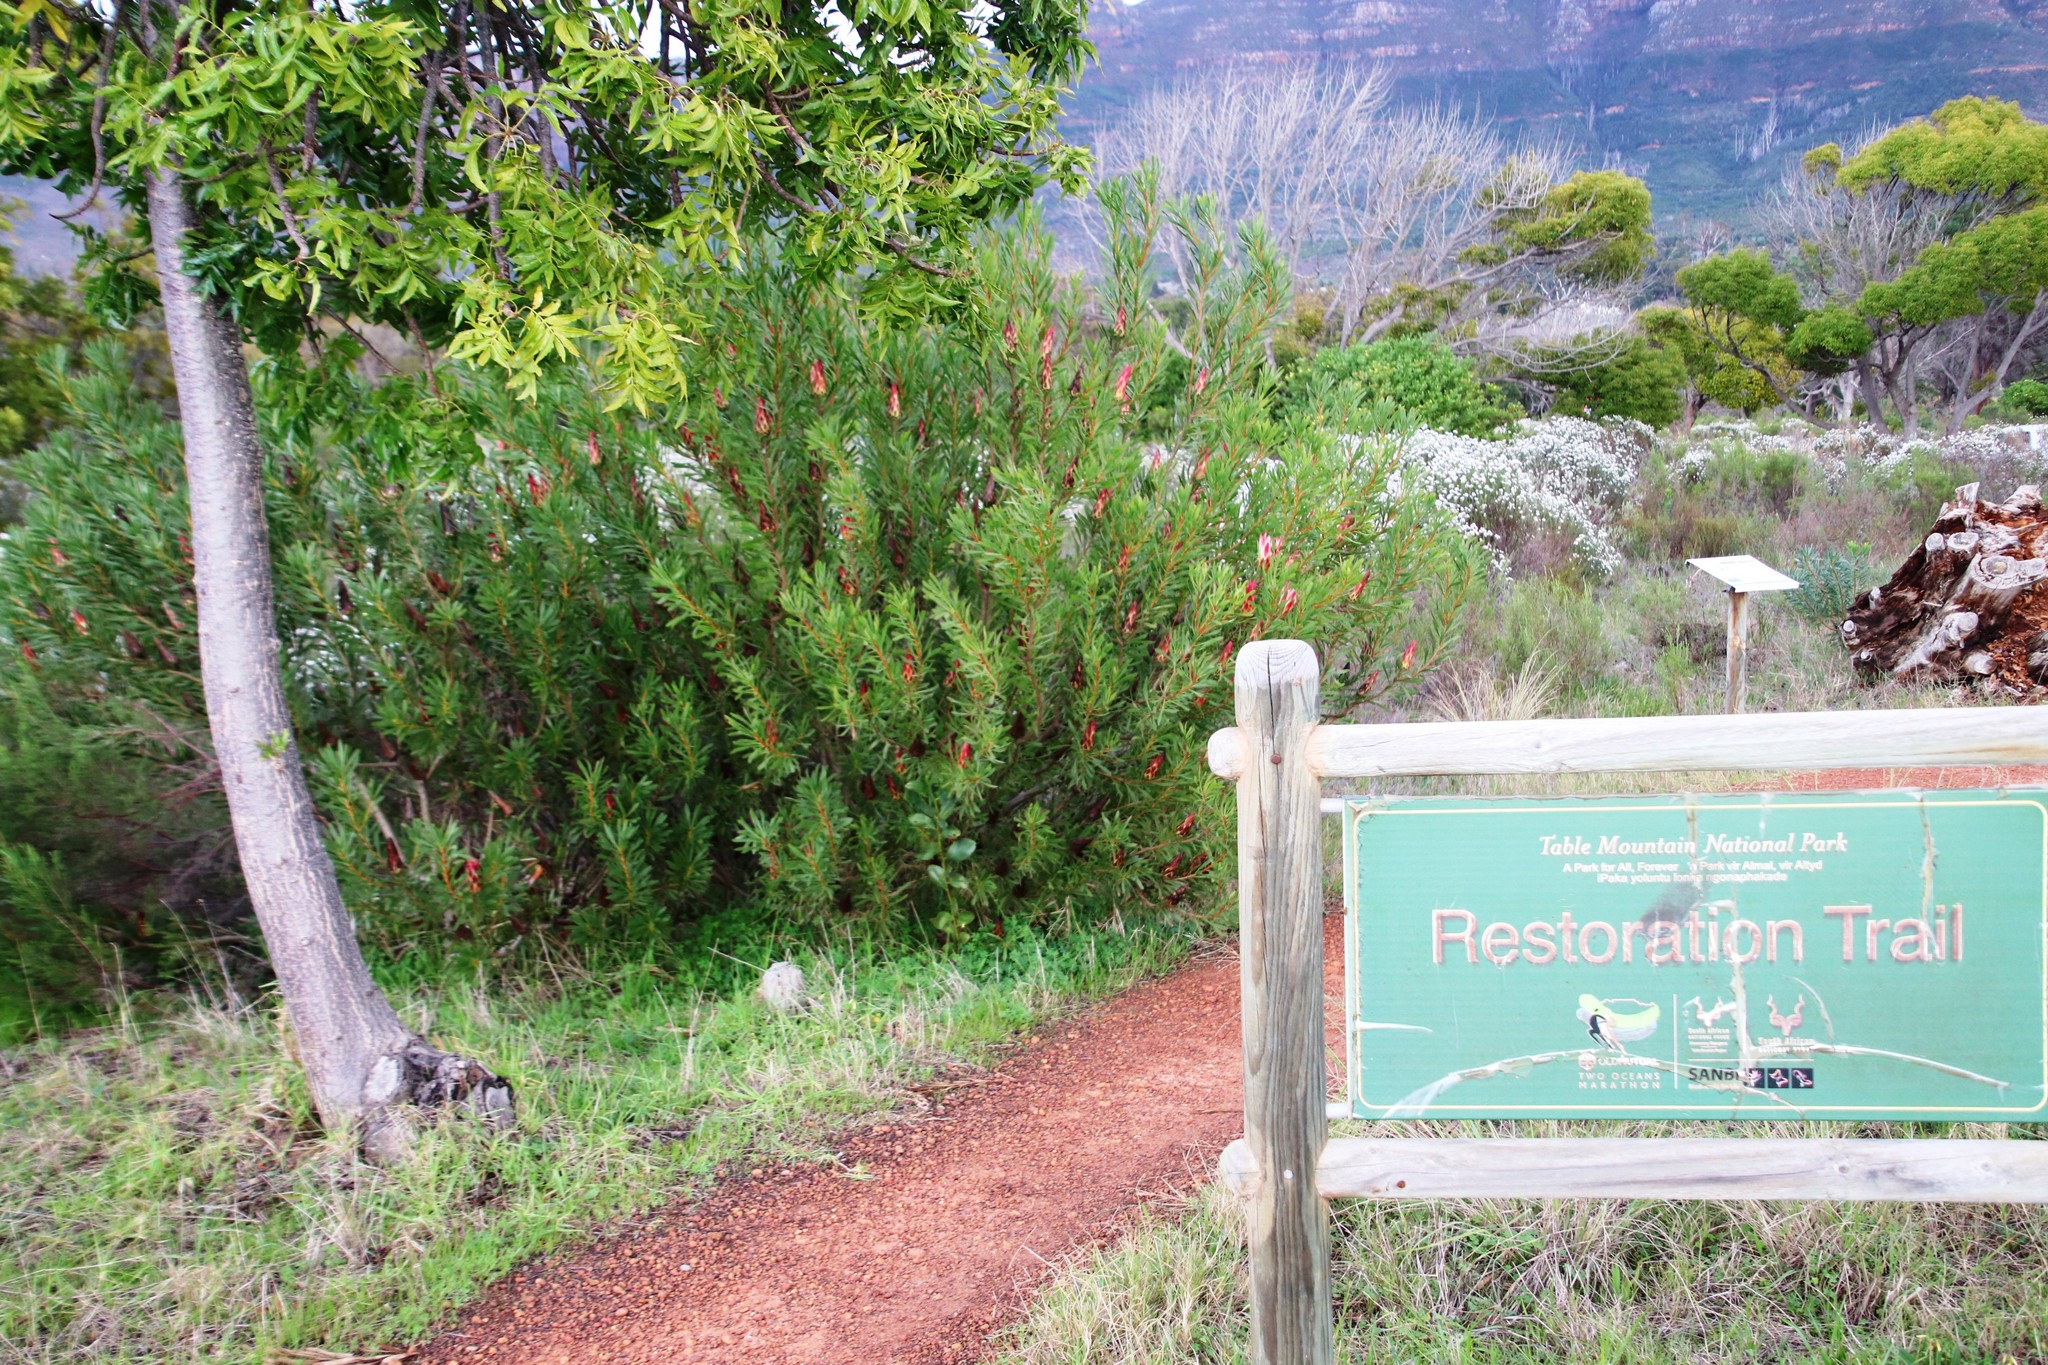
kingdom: Plantae
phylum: Tracheophyta
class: Magnoliopsida
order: Proteales
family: Proteaceae
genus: Protea
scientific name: Protea repens
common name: Sugarbush
